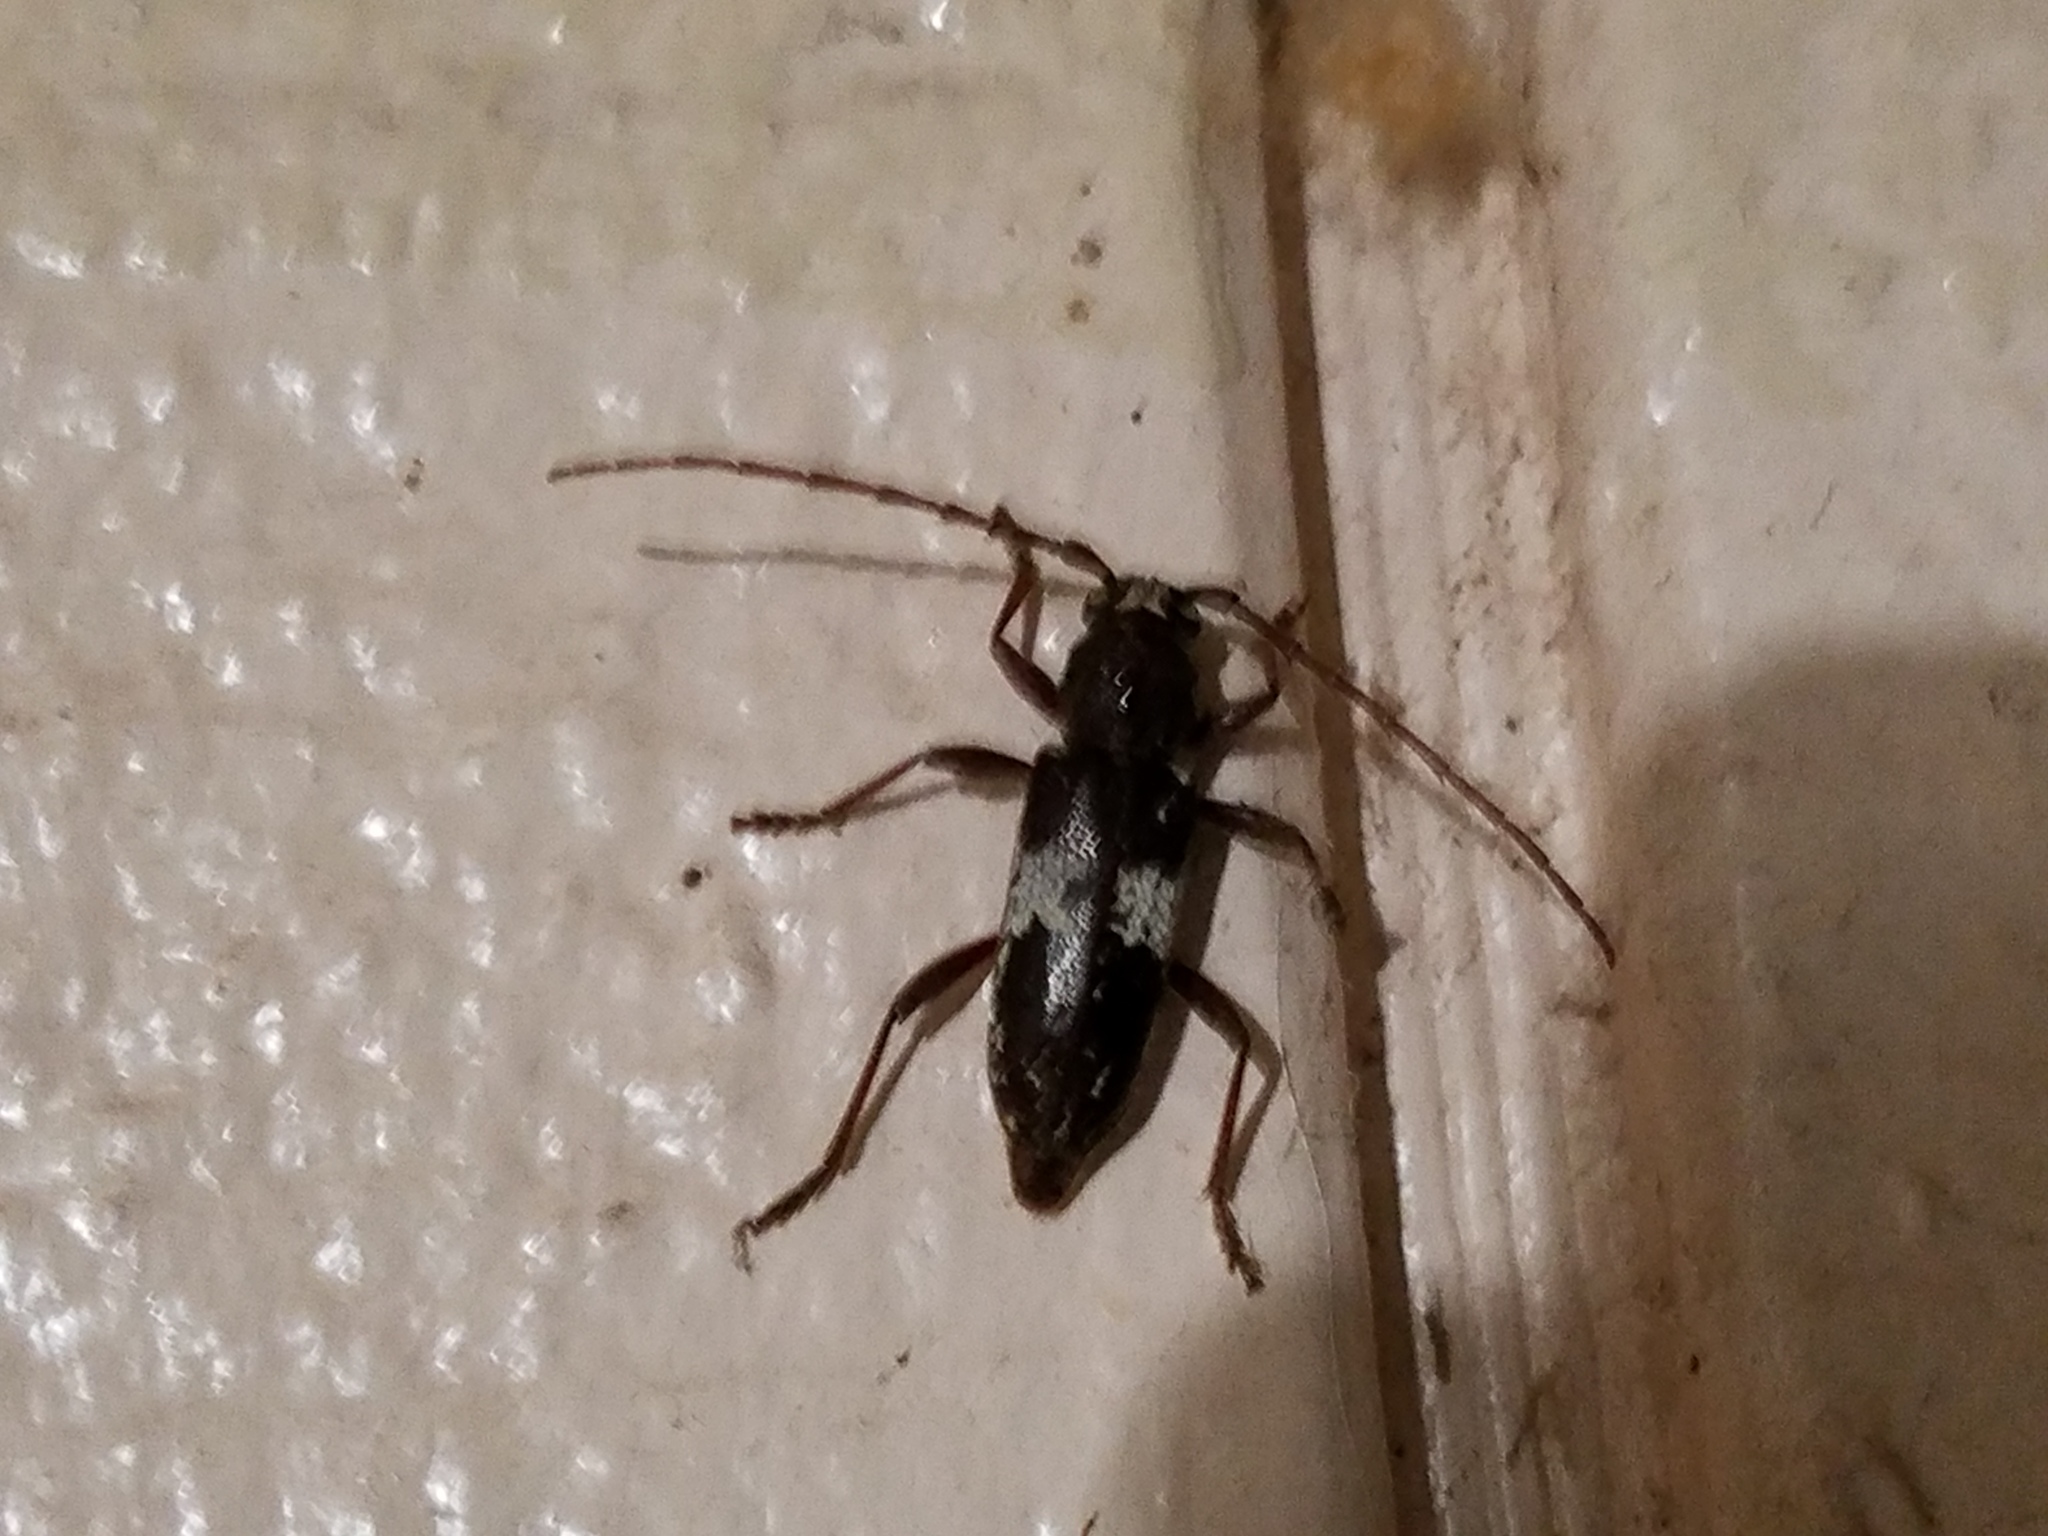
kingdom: Animalia
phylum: Arthropoda
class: Insecta
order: Coleoptera
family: Cerambycidae
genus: Enaphalodes
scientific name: Enaphalodes taeniatus
